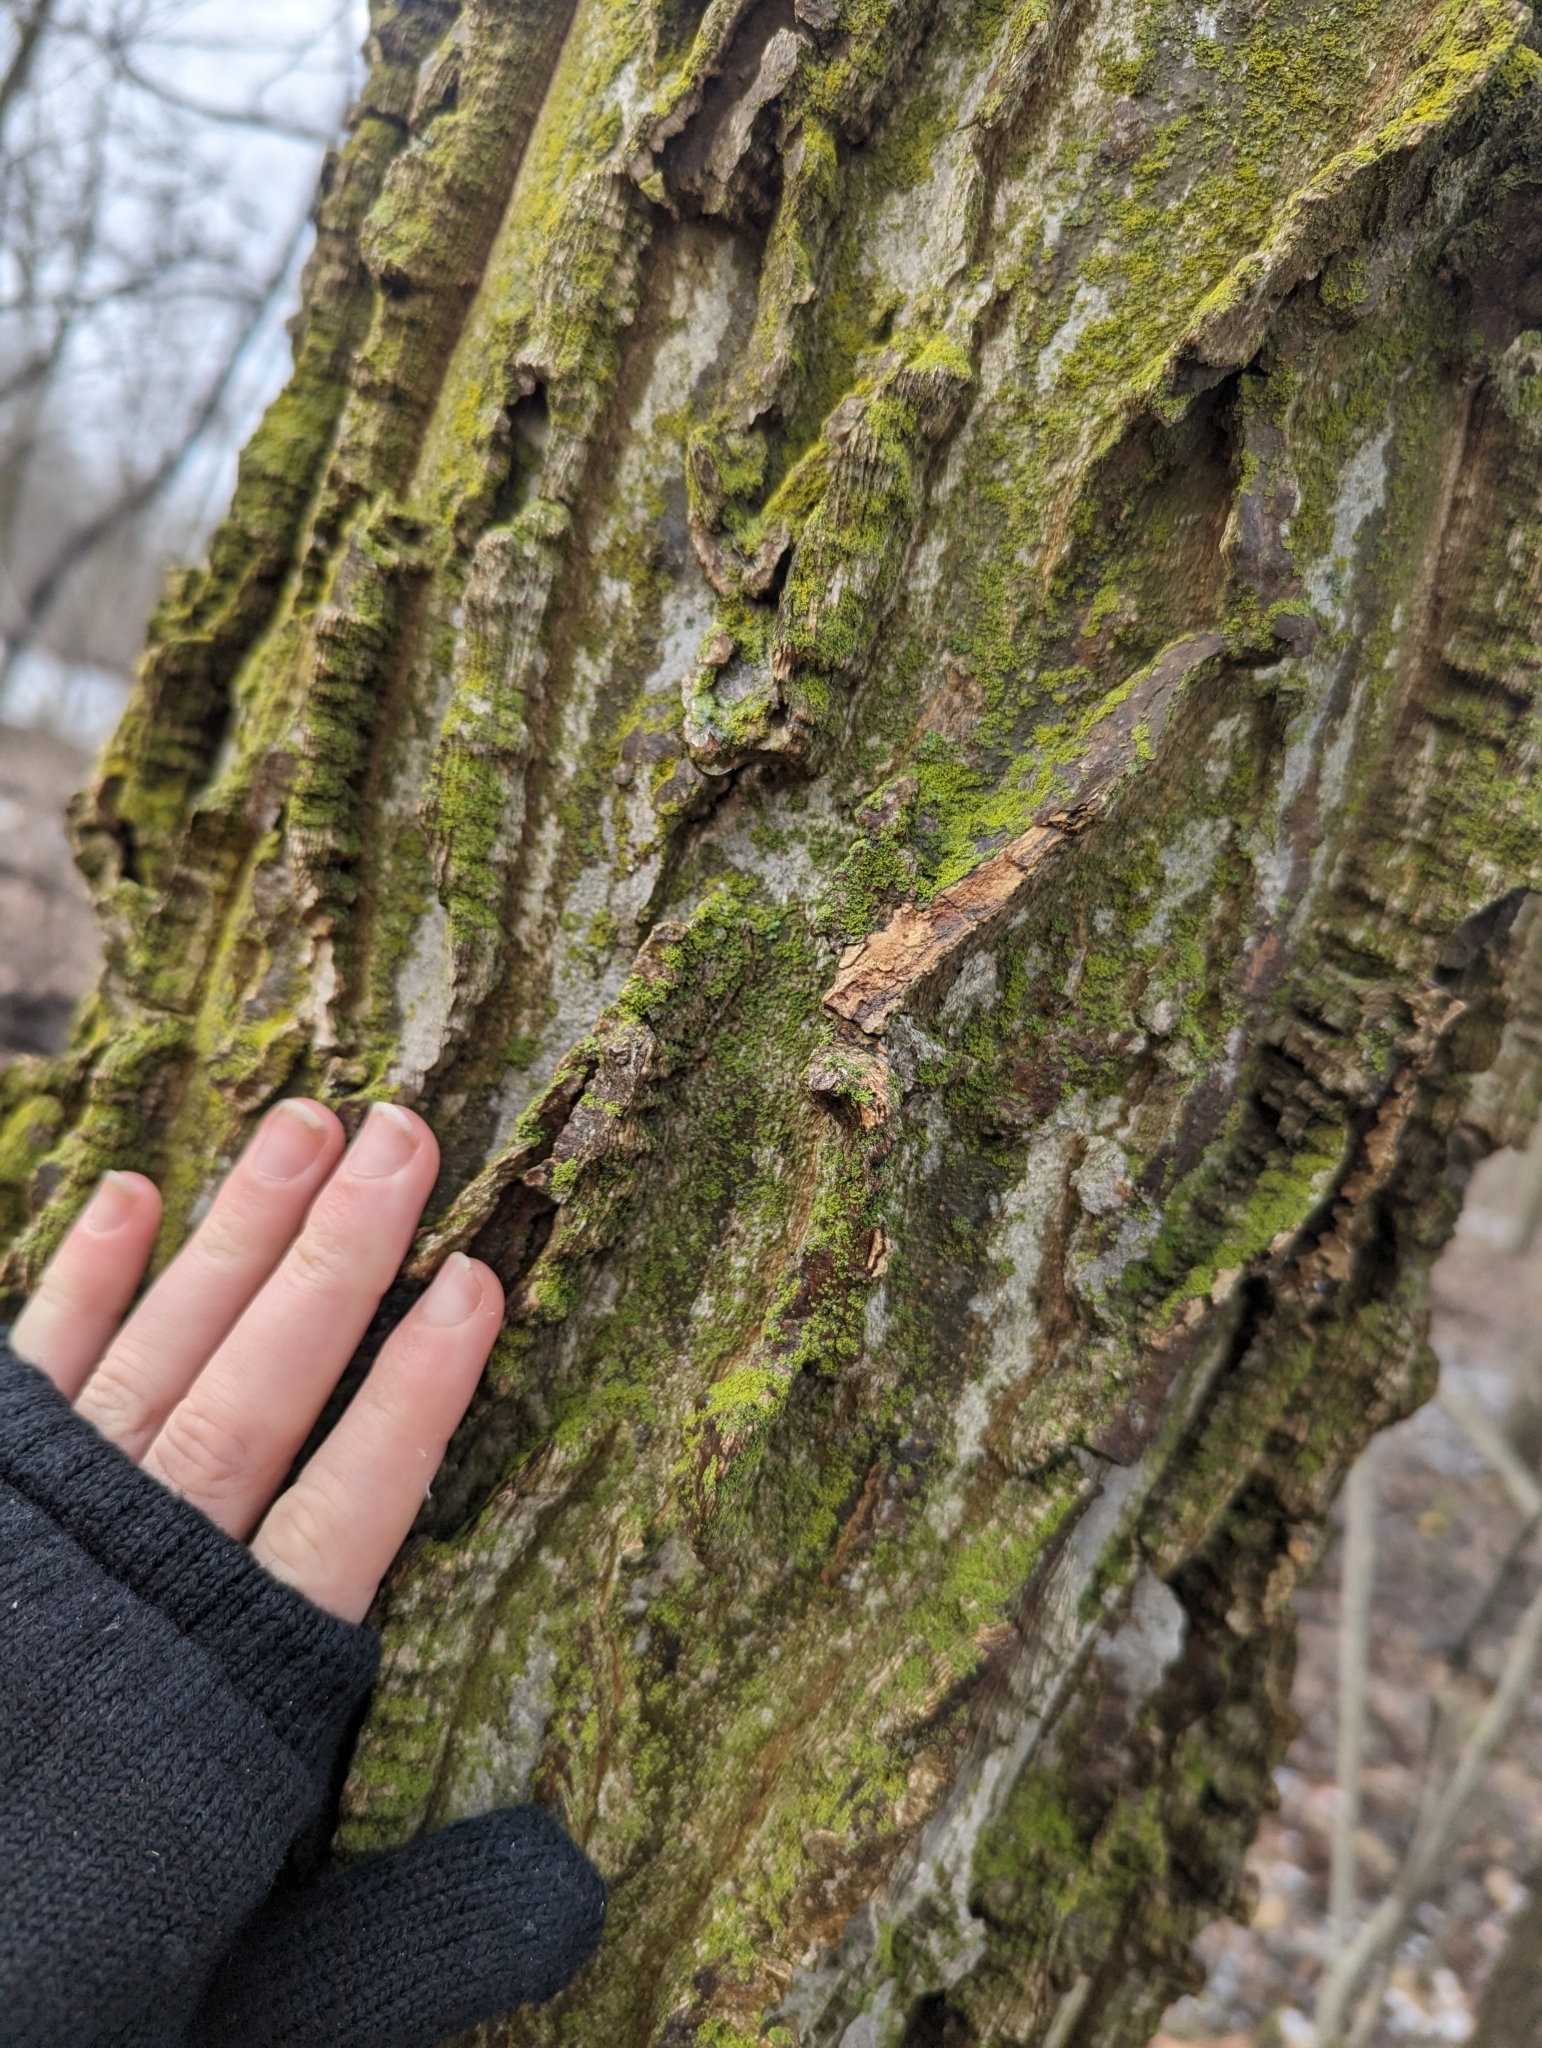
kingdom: Plantae
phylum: Tracheophyta
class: Magnoliopsida
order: Rosales
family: Cannabaceae
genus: Celtis
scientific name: Celtis occidentalis
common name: Common hackberry
